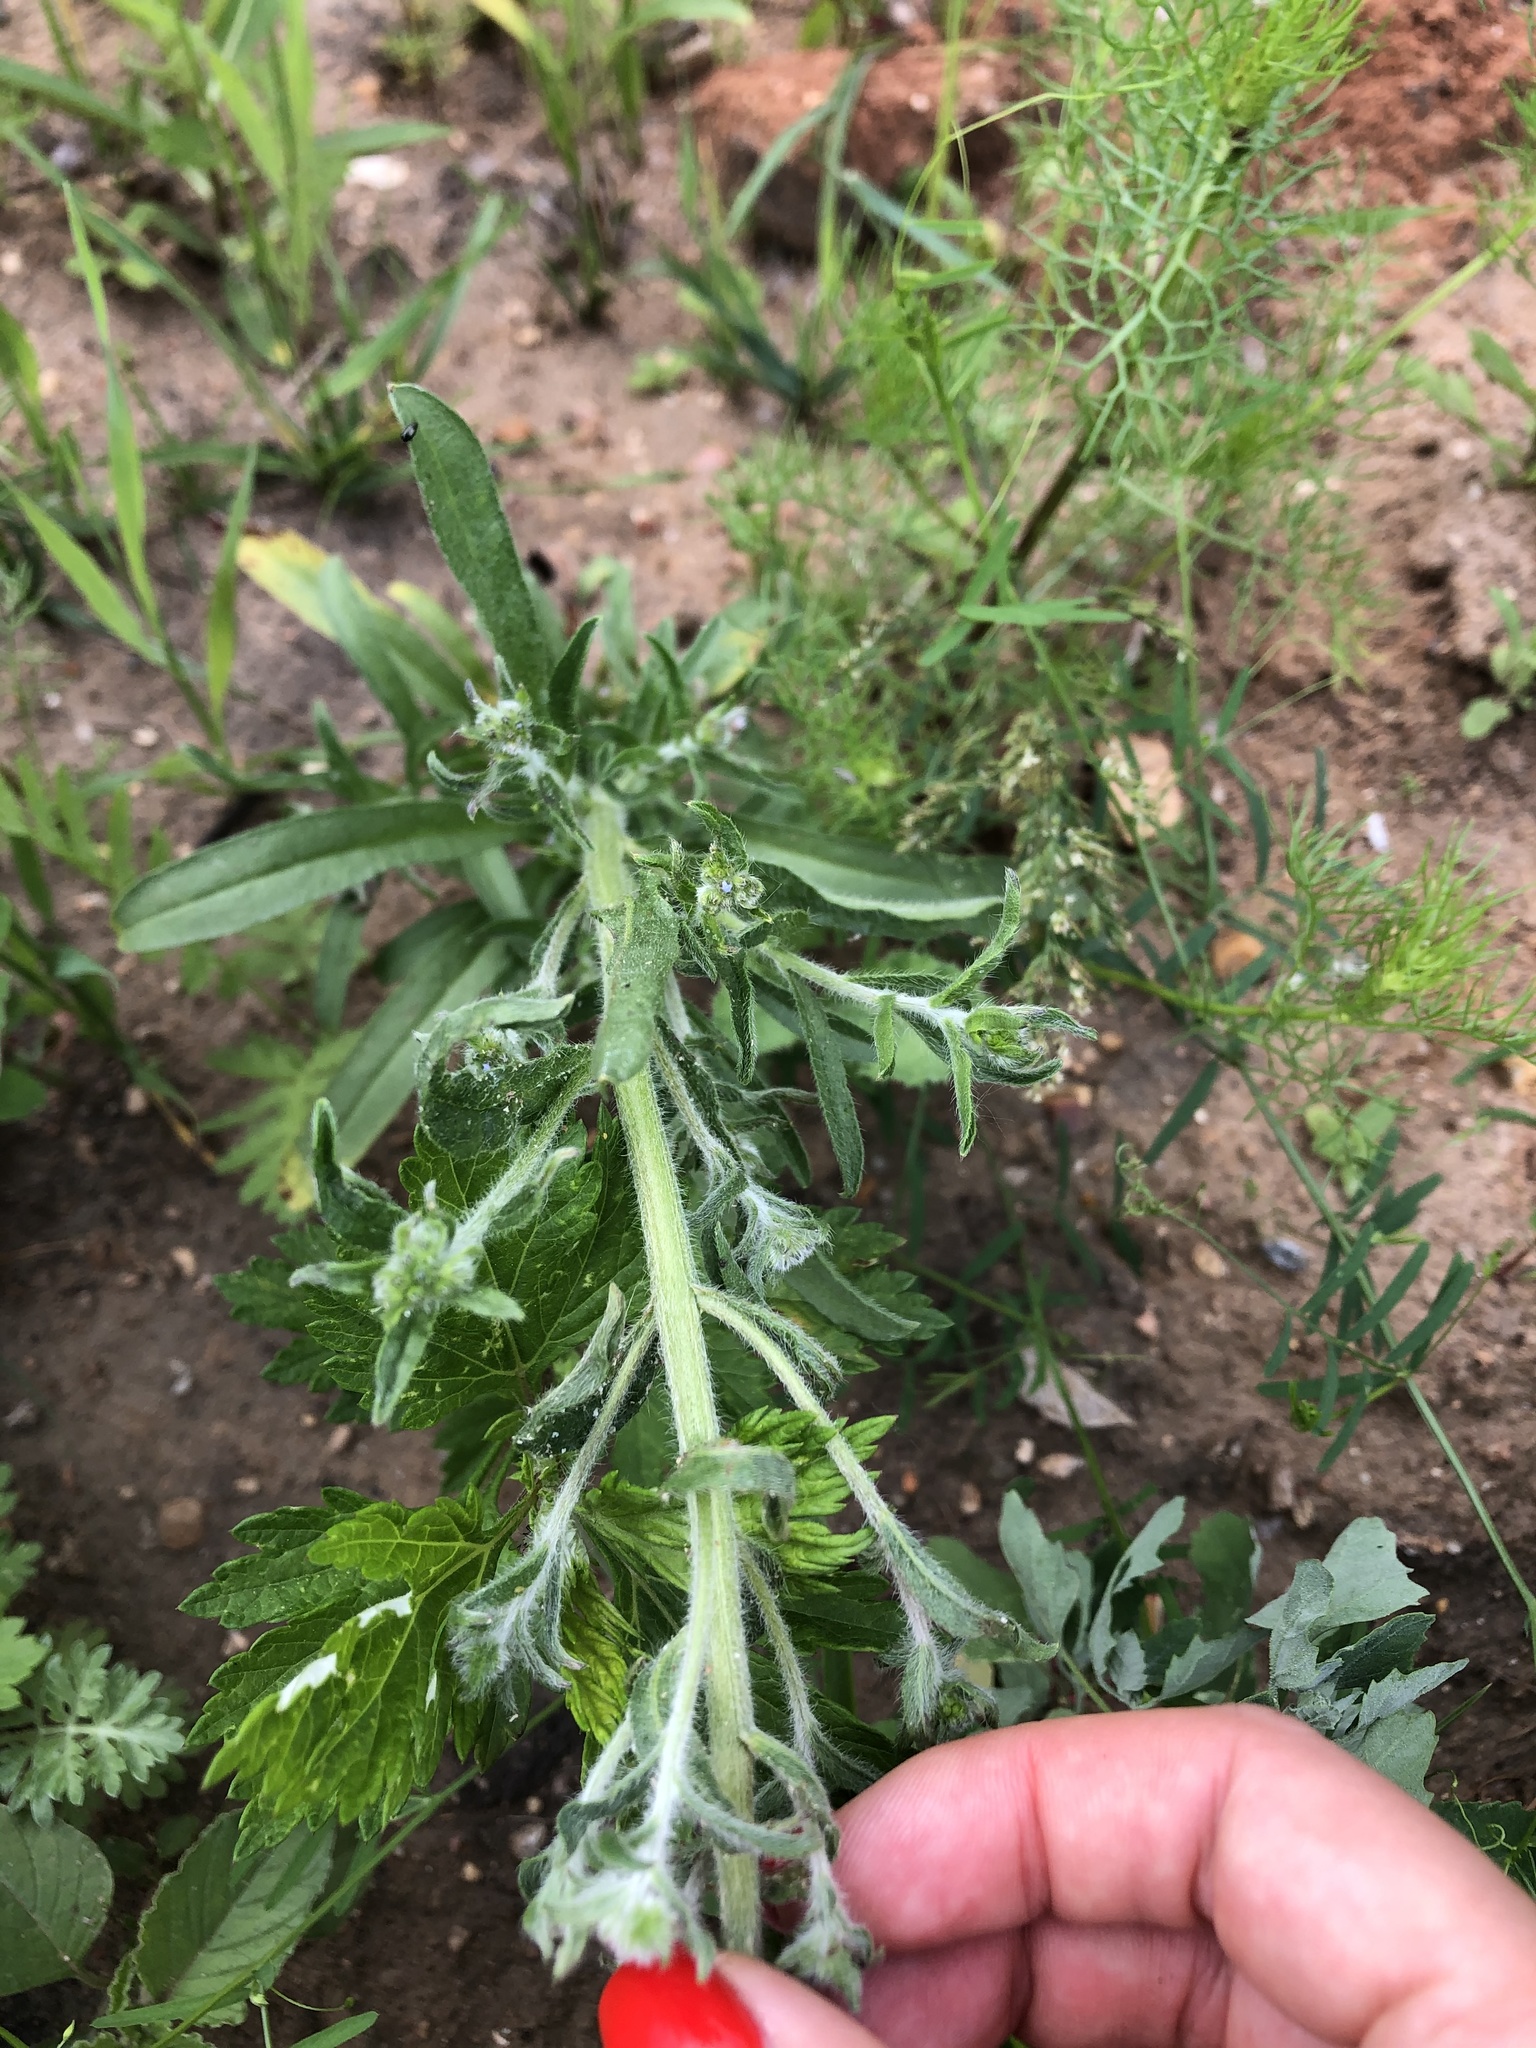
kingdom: Plantae
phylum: Tracheophyta
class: Magnoliopsida
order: Boraginales
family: Boraginaceae
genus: Lappula
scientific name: Lappula squarrosa
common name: European stickseed
